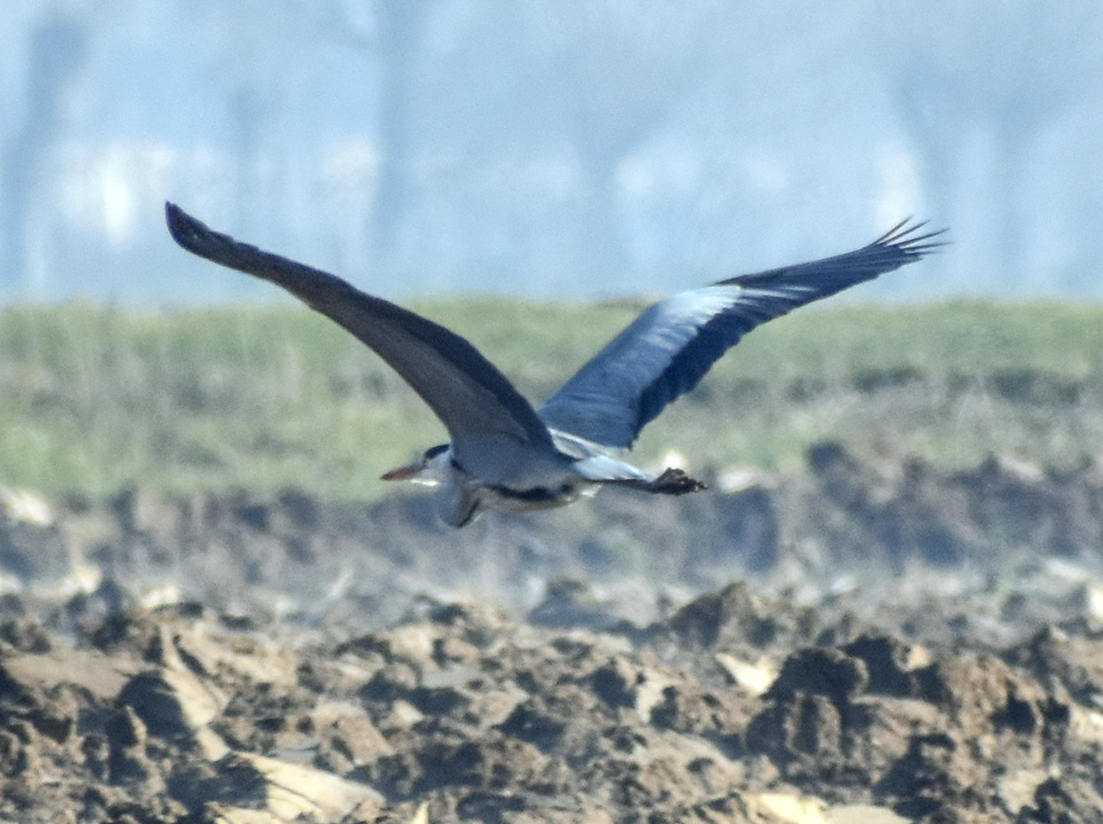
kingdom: Animalia
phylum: Chordata
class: Aves
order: Pelecaniformes
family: Ardeidae
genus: Ardea
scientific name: Ardea cinerea
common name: Grey heron
